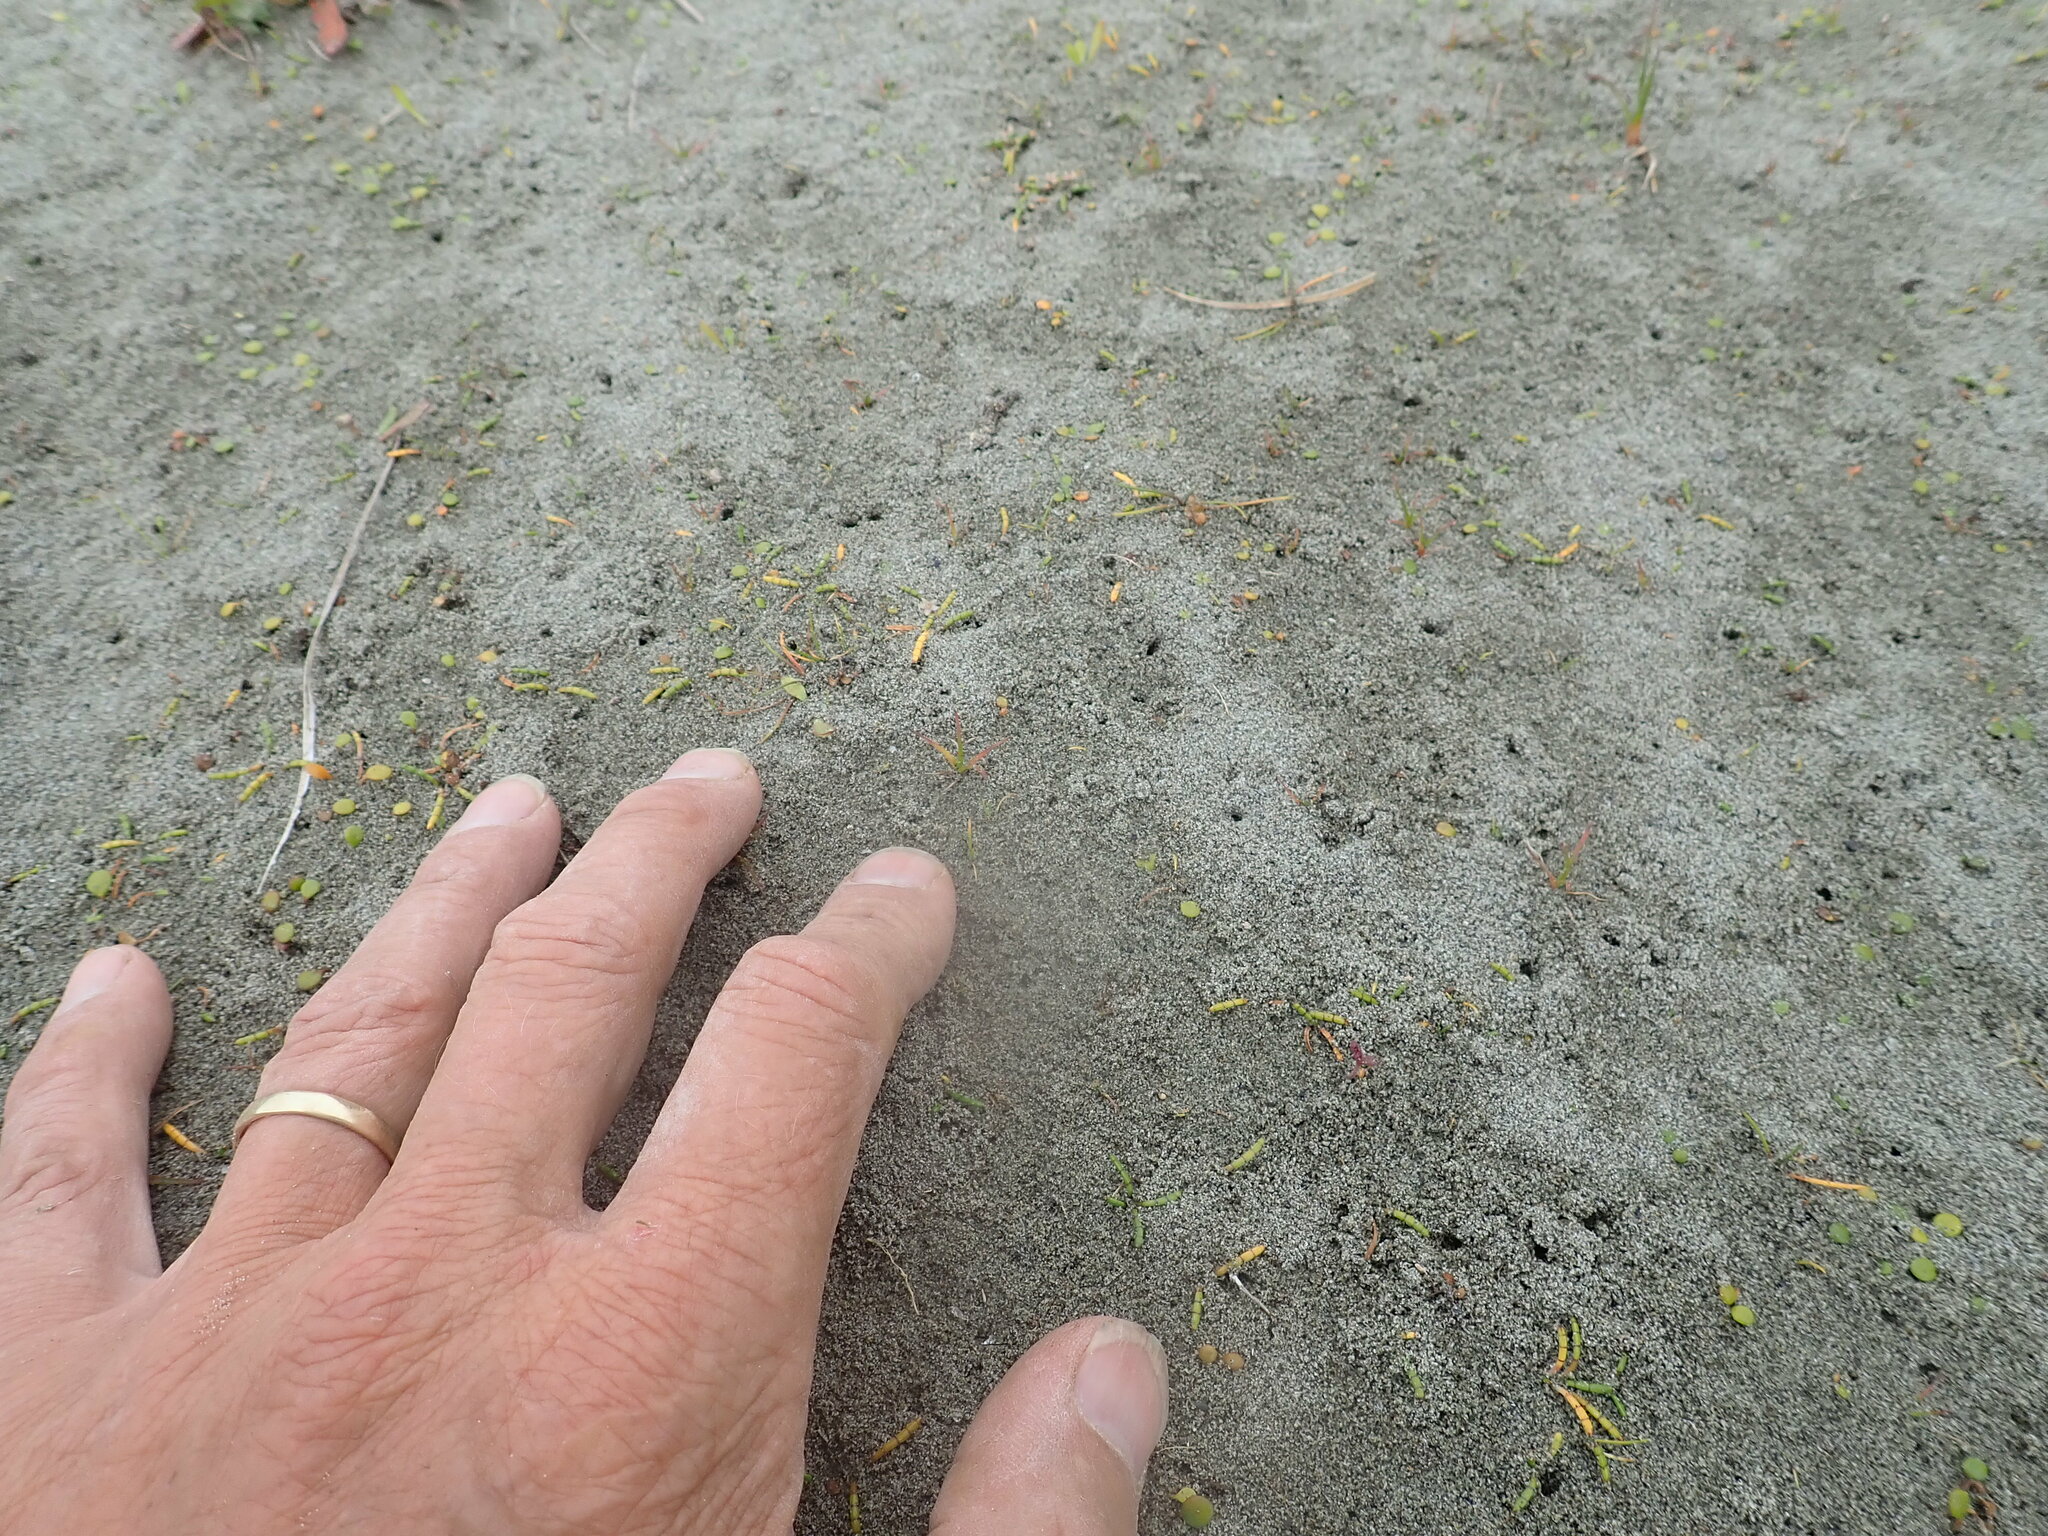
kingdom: Plantae
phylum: Tracheophyta
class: Magnoliopsida
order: Apiales
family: Apiaceae
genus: Lilaeopsis
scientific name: Lilaeopsis novae-zelandiae
